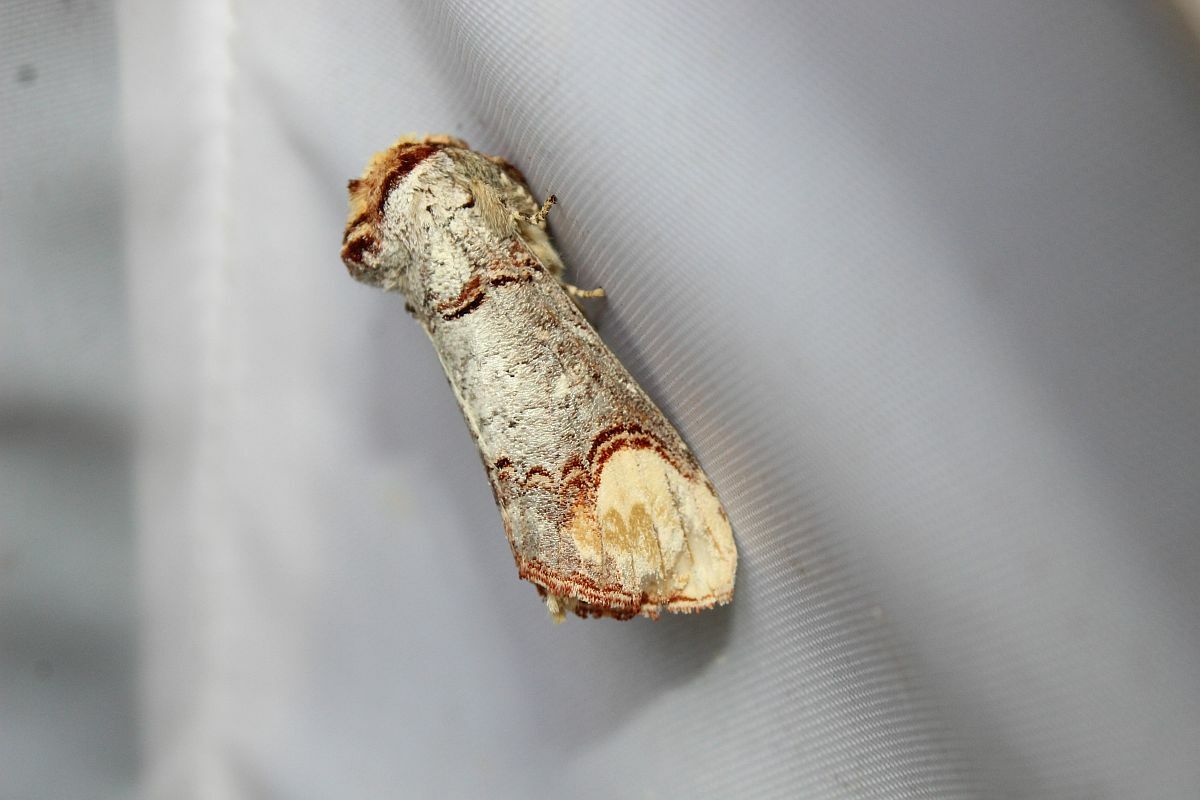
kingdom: Animalia
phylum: Arthropoda
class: Insecta
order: Lepidoptera
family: Notodontidae
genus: Phalera
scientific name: Phalera bucephala
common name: Buff-tip
